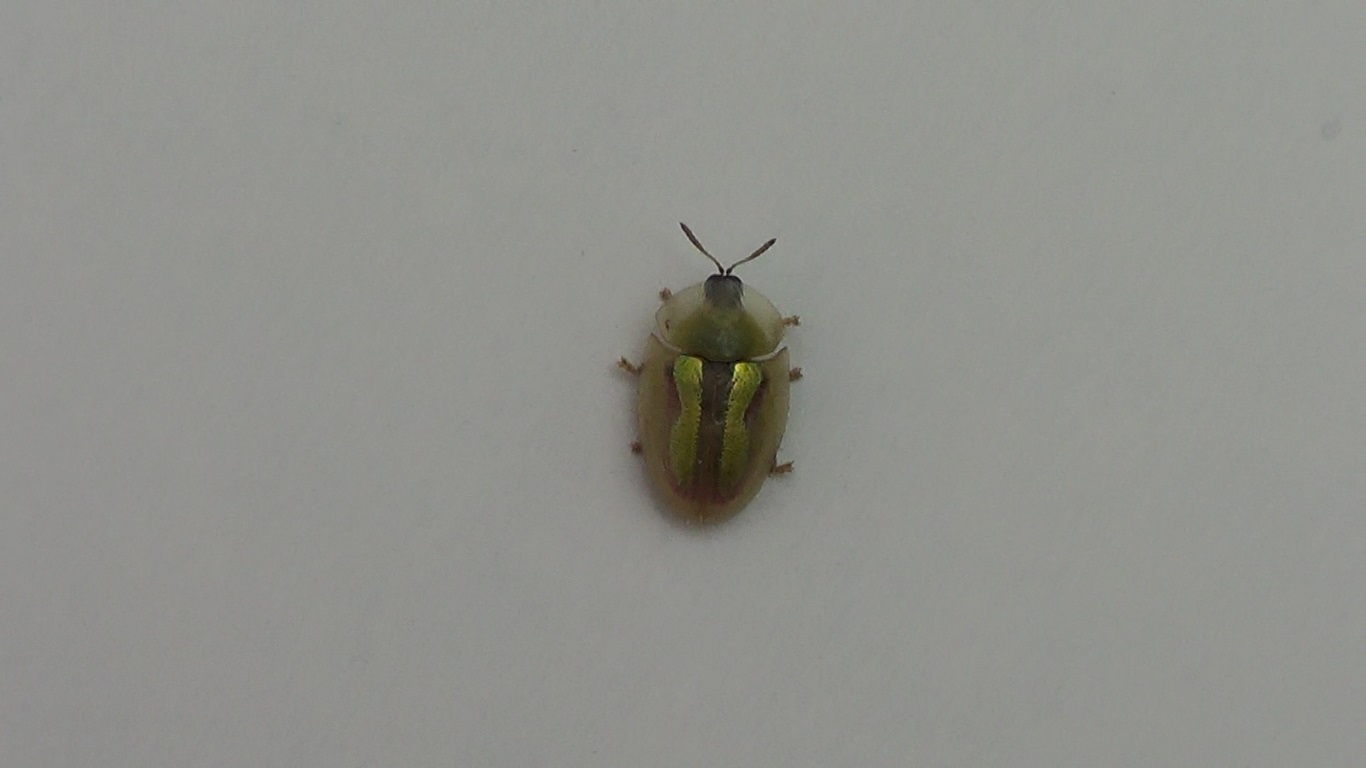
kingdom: Animalia
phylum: Arthropoda
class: Insecta
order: Coleoptera
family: Chrysomelidae
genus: Cassida
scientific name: Cassida vittata
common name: Bordered tortoise beetle
